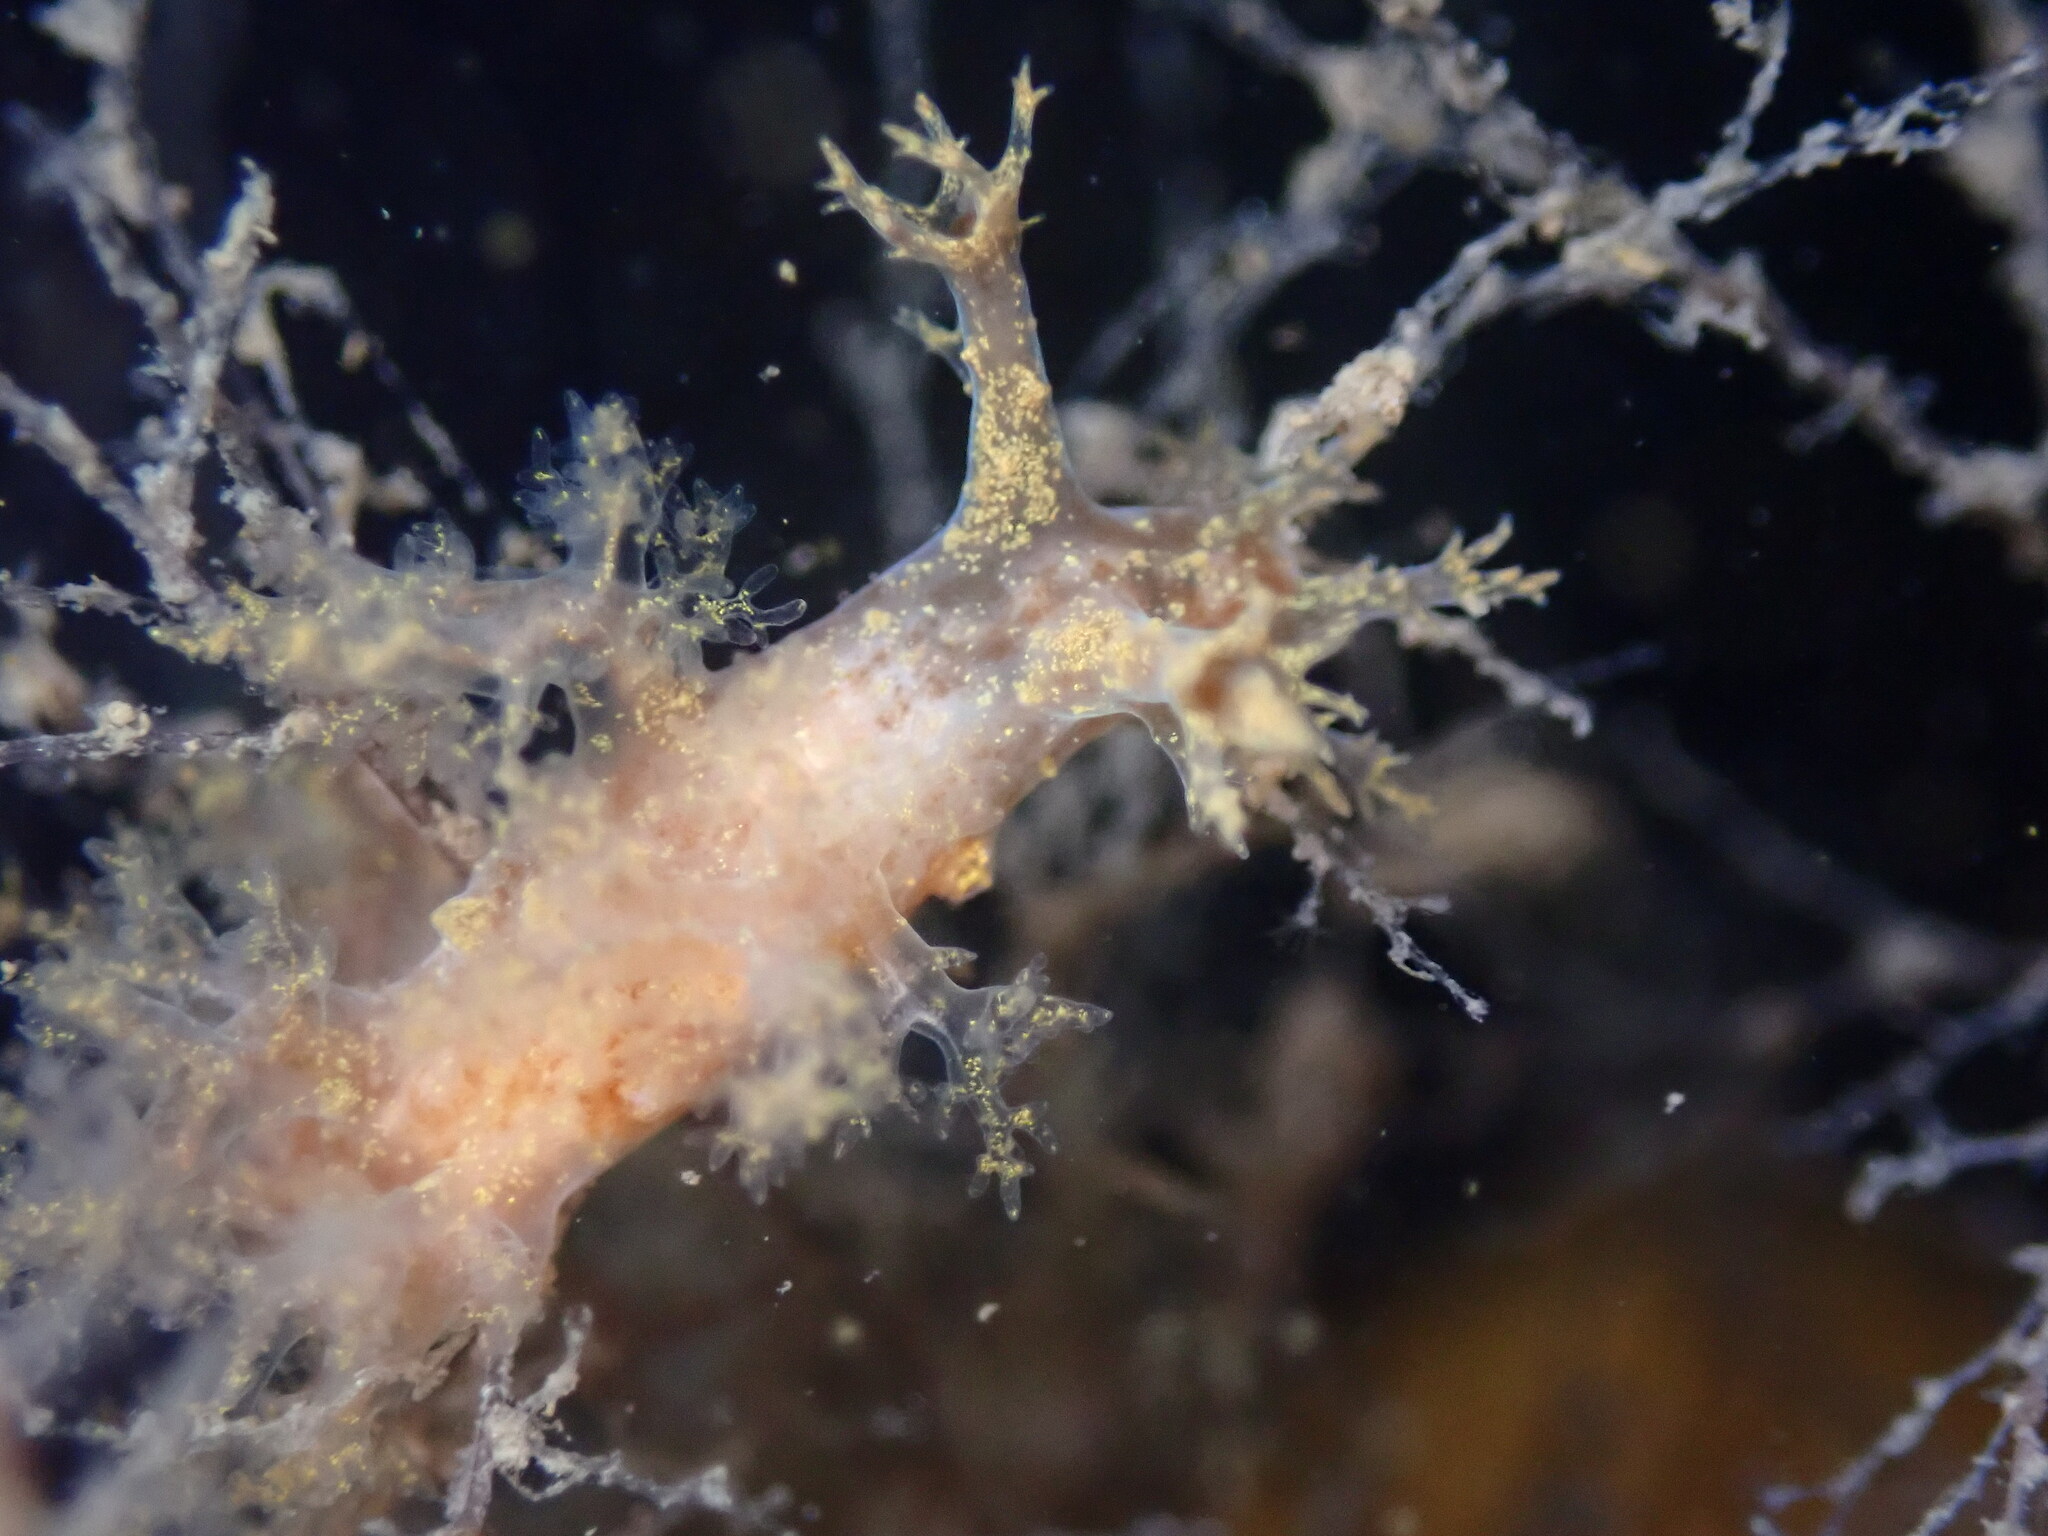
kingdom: Animalia
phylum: Mollusca
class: Gastropoda
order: Nudibranchia
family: Dendronotidae
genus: Dendronotus
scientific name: Dendronotus venustus
